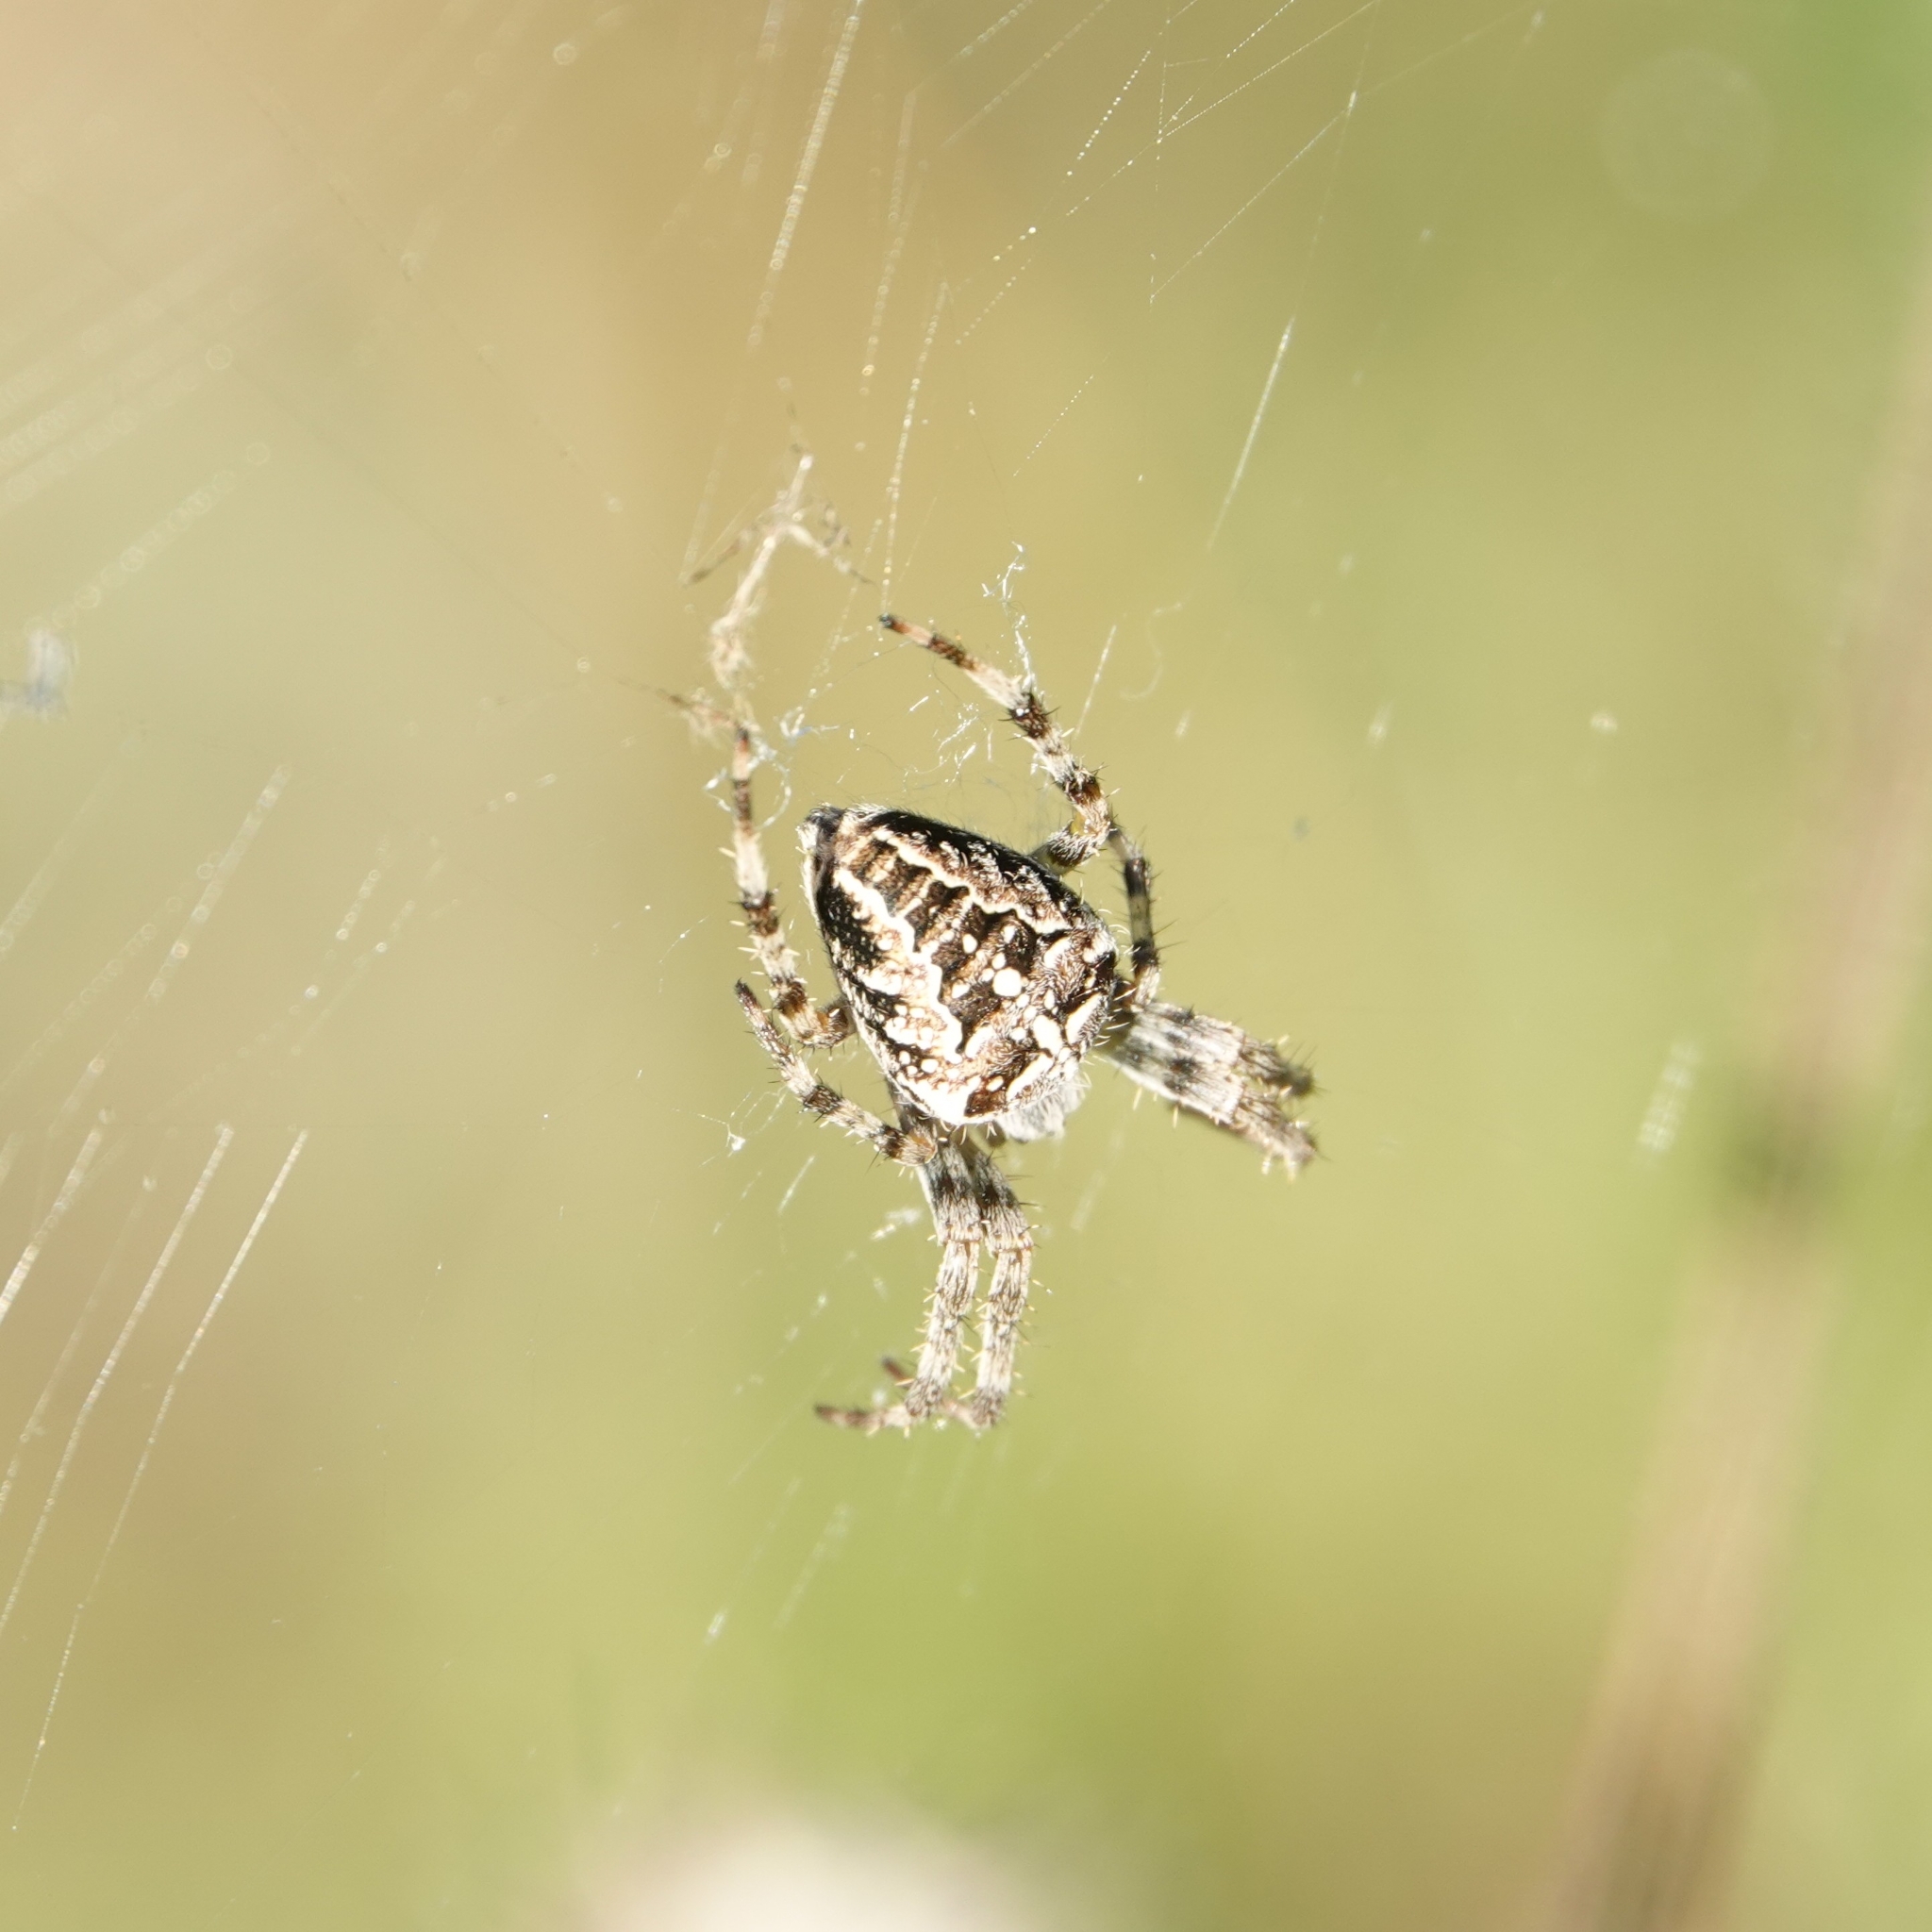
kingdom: Animalia
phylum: Arthropoda
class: Arachnida
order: Araneae
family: Araneidae
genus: Araneus
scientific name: Araneus diadematus
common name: Cross orbweaver
